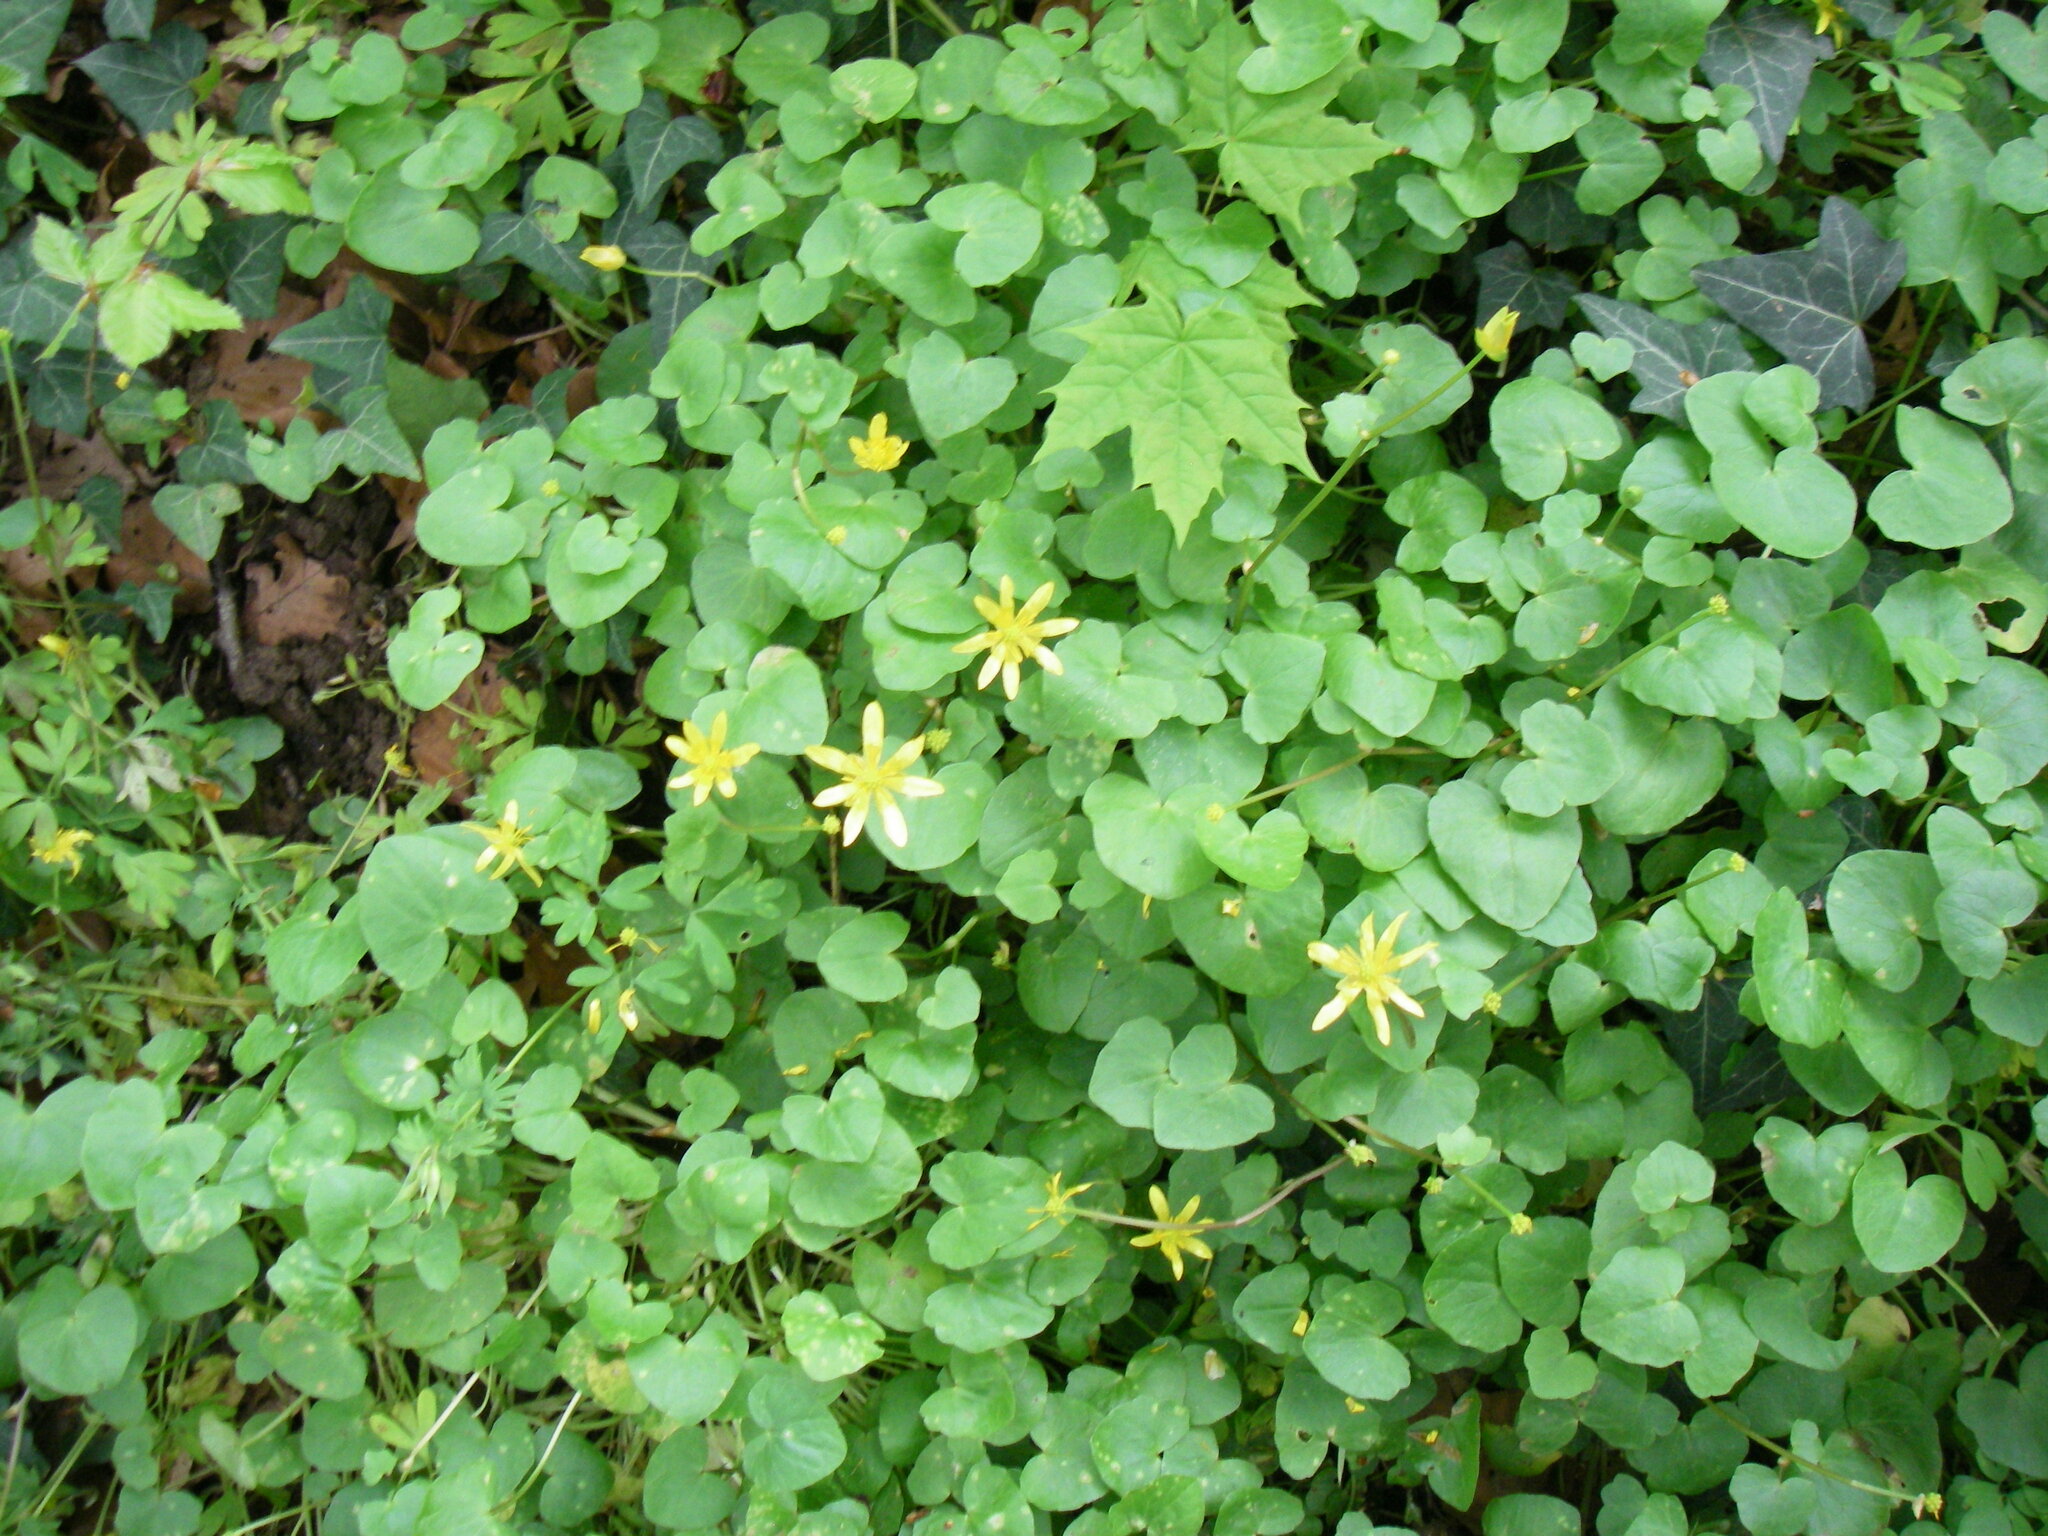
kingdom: Plantae
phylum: Tracheophyta
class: Magnoliopsida
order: Ranunculales
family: Ranunculaceae
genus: Ficaria
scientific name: Ficaria verna
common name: Lesser celandine
